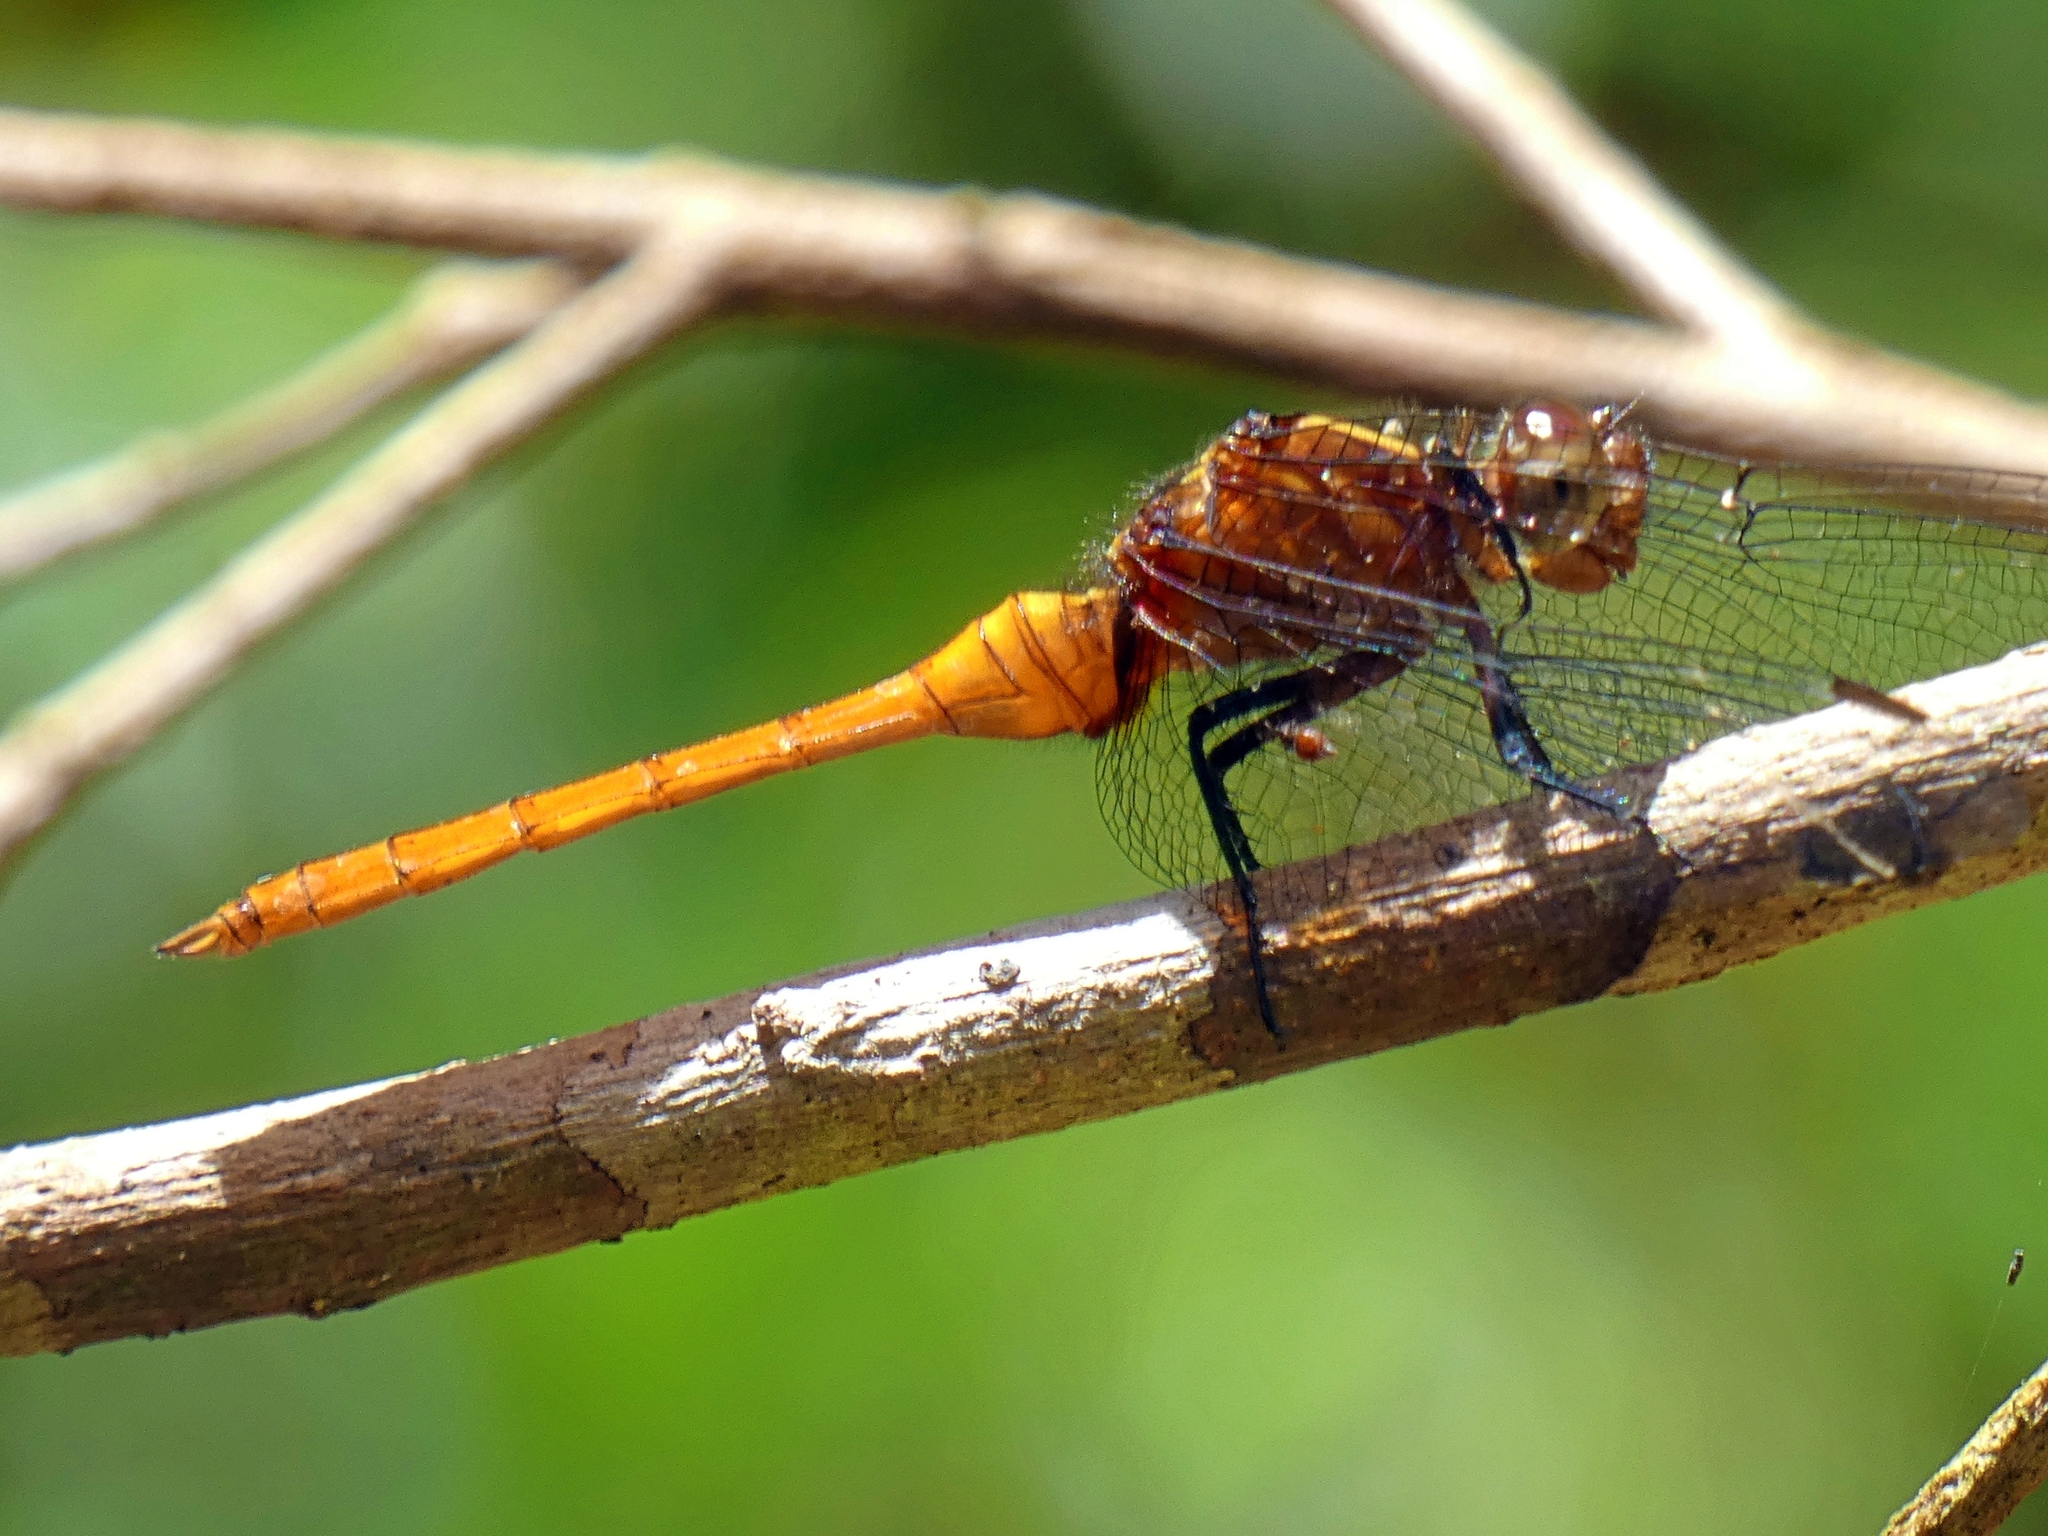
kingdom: Animalia
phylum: Arthropoda
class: Insecta
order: Odonata
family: Libellulidae
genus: Orthetrum
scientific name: Orthetrum villosovittatum
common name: Firery skimmer
